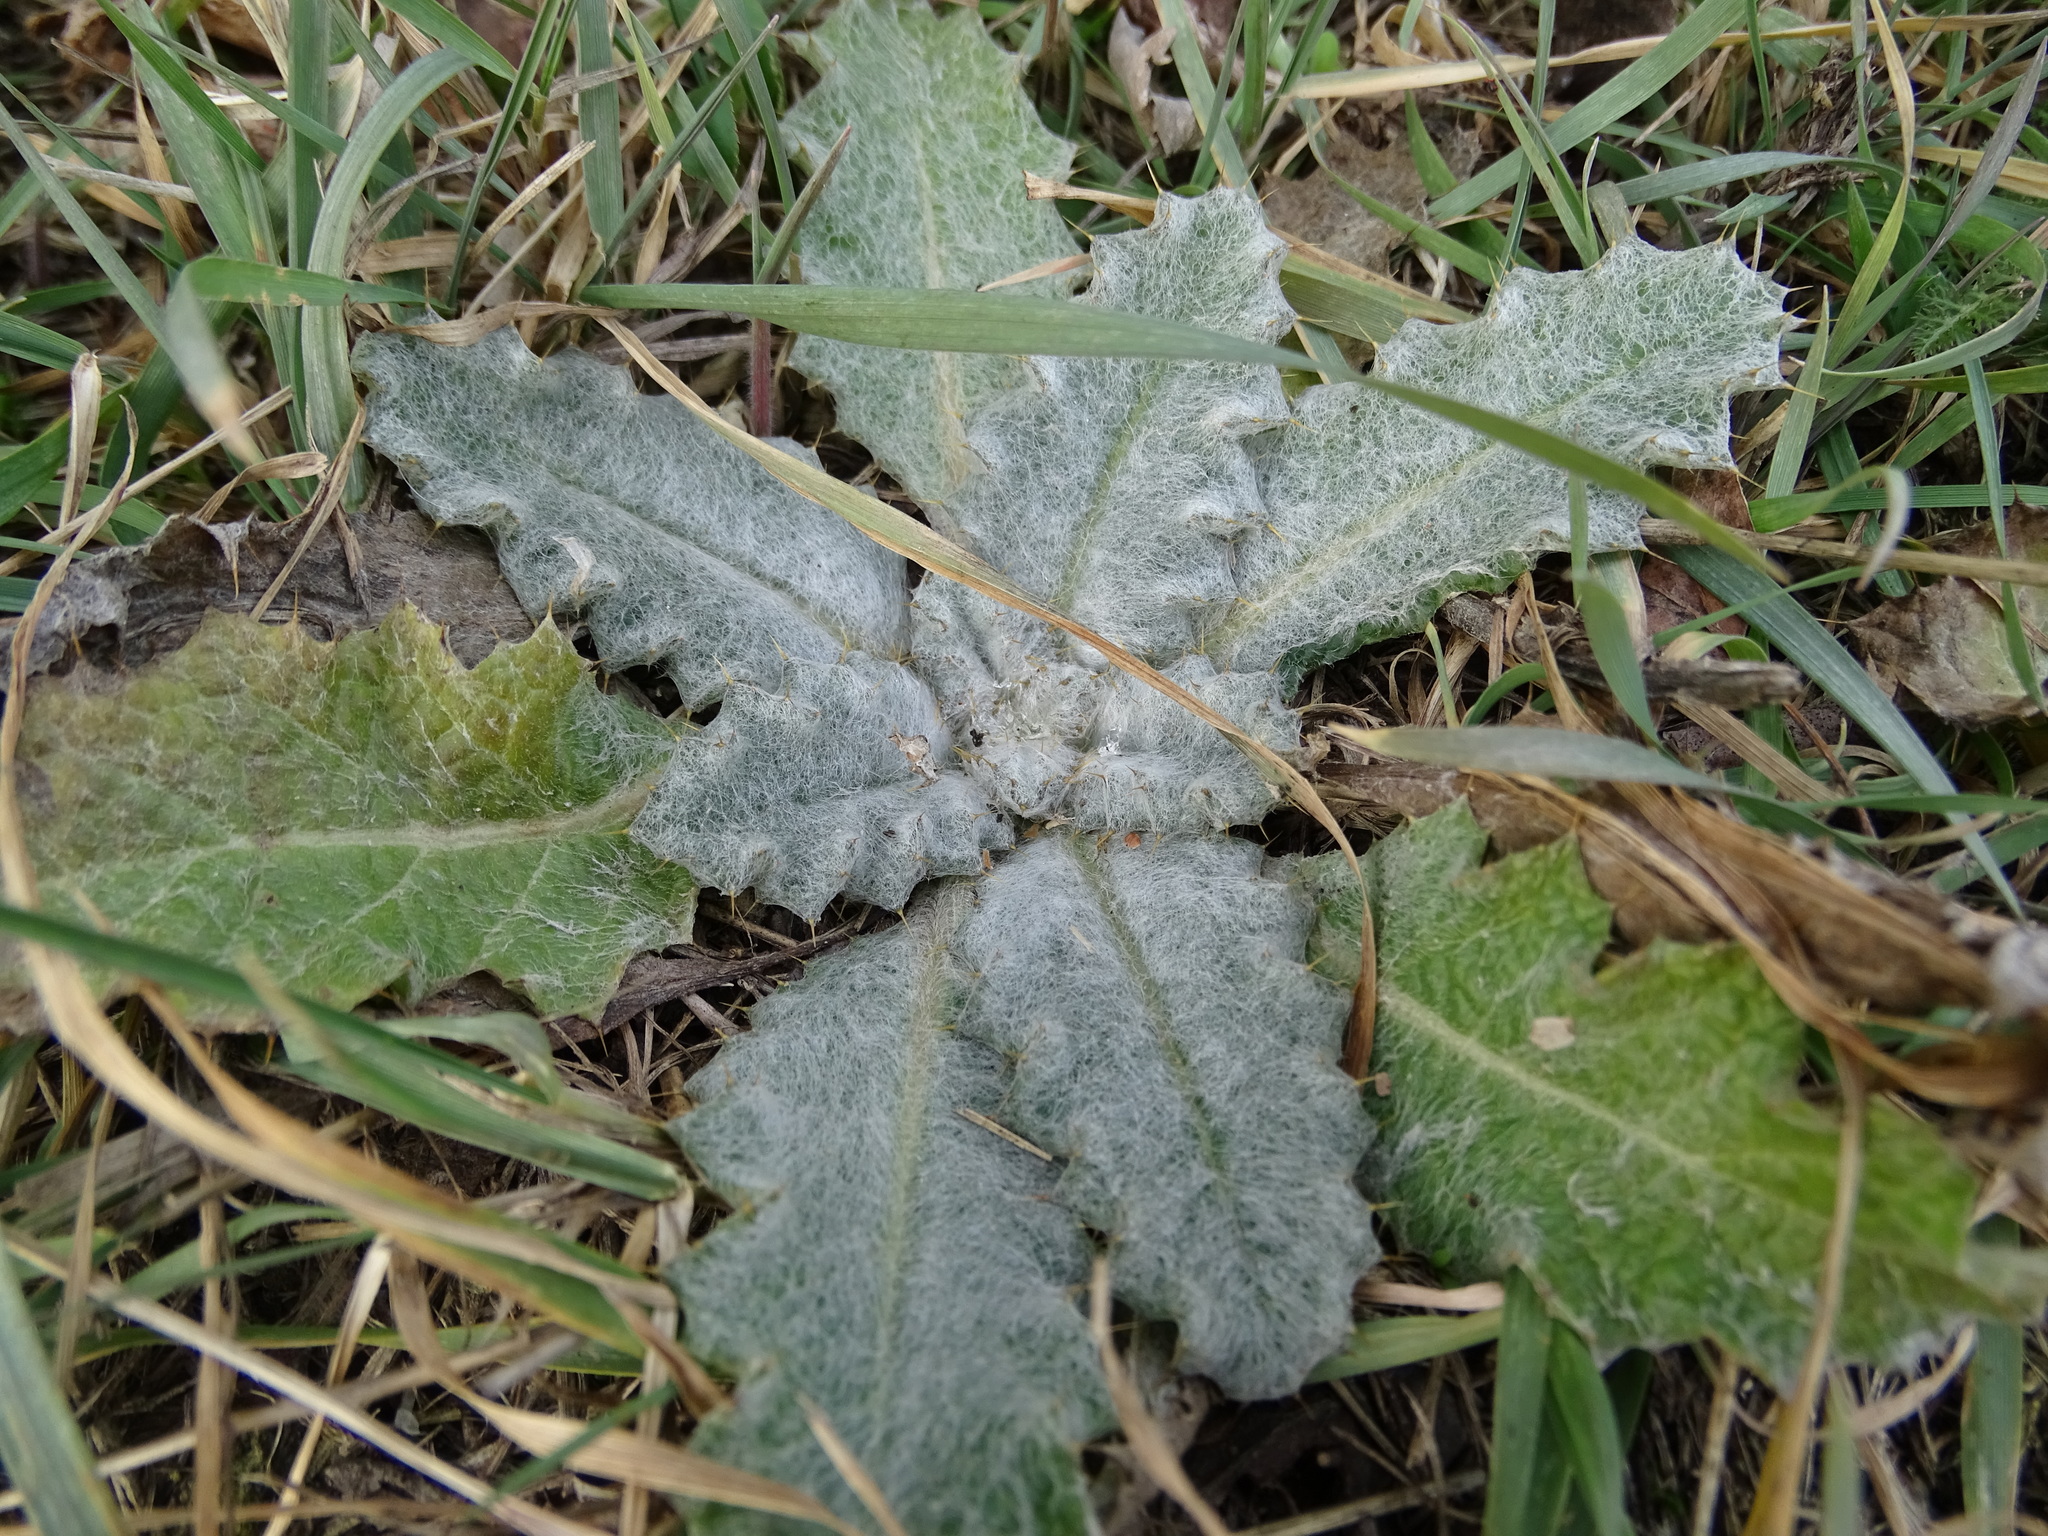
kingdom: Plantae
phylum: Tracheophyta
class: Magnoliopsida
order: Asterales
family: Asteraceae
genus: Onopordum
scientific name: Onopordum acanthium
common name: Scotch thistle
